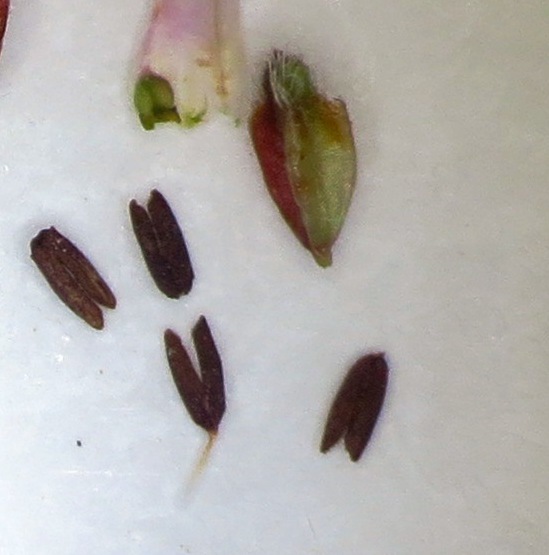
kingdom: Plantae
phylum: Tracheophyta
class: Magnoliopsida
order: Ericales
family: Ericaceae
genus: Erica
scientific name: Erica glabella
